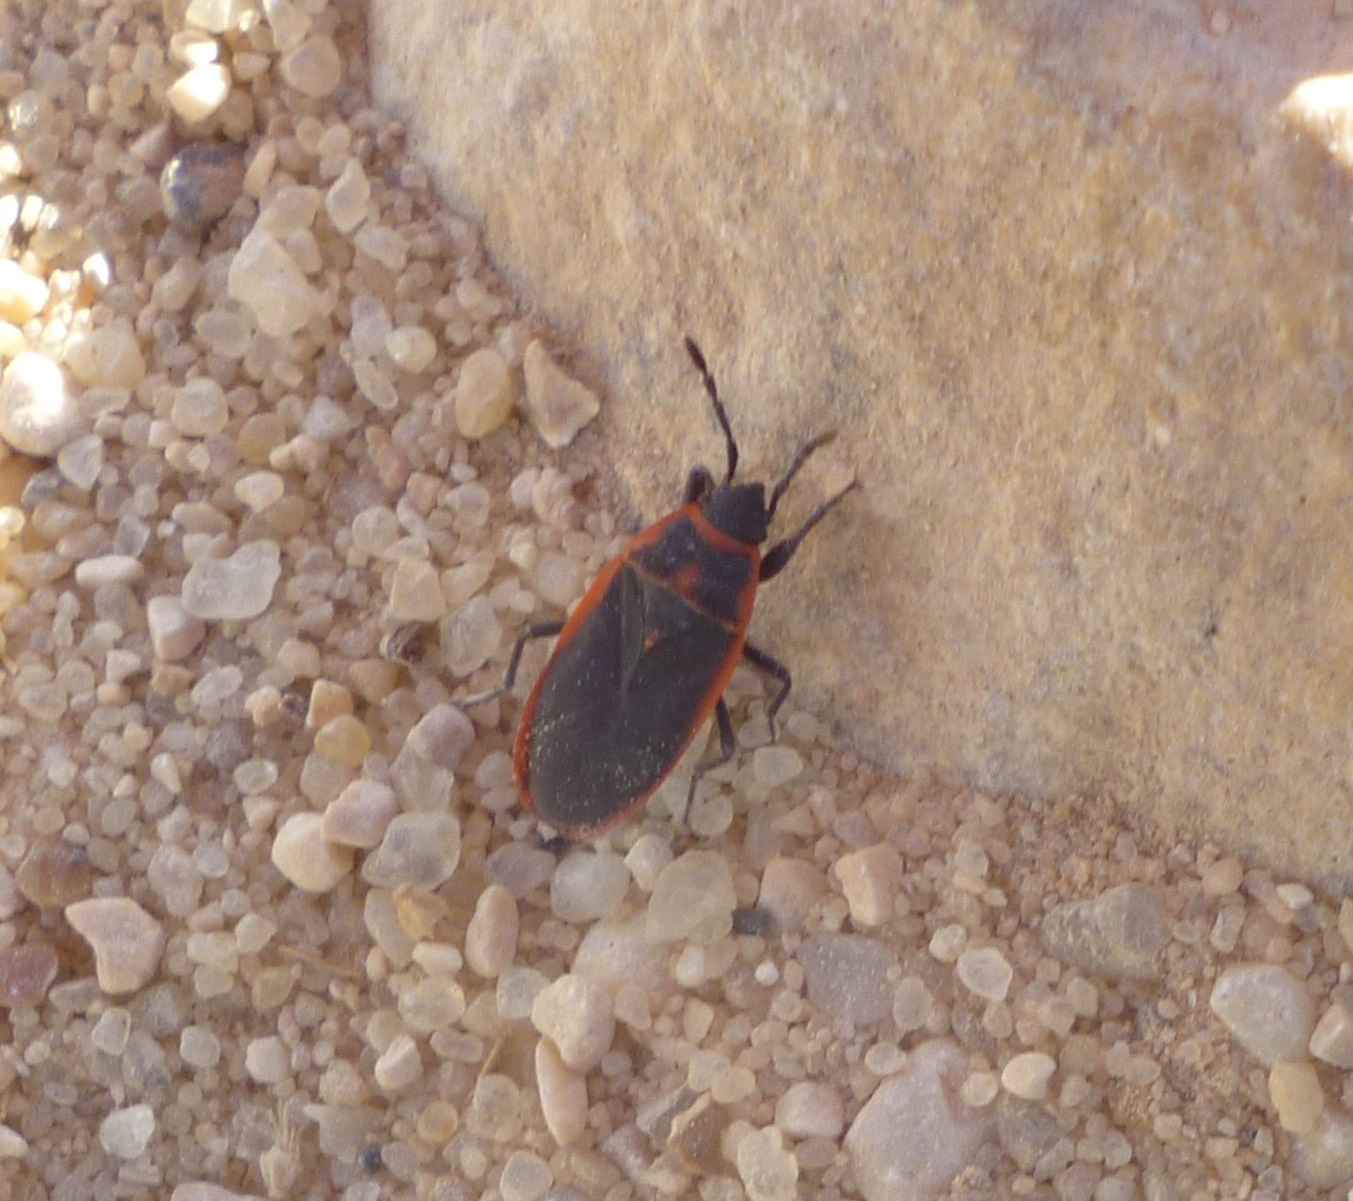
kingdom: Animalia
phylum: Arthropoda
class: Insecta
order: Hemiptera
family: Pyrrhocoridae
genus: Scantius
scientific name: Scantius forsteri
